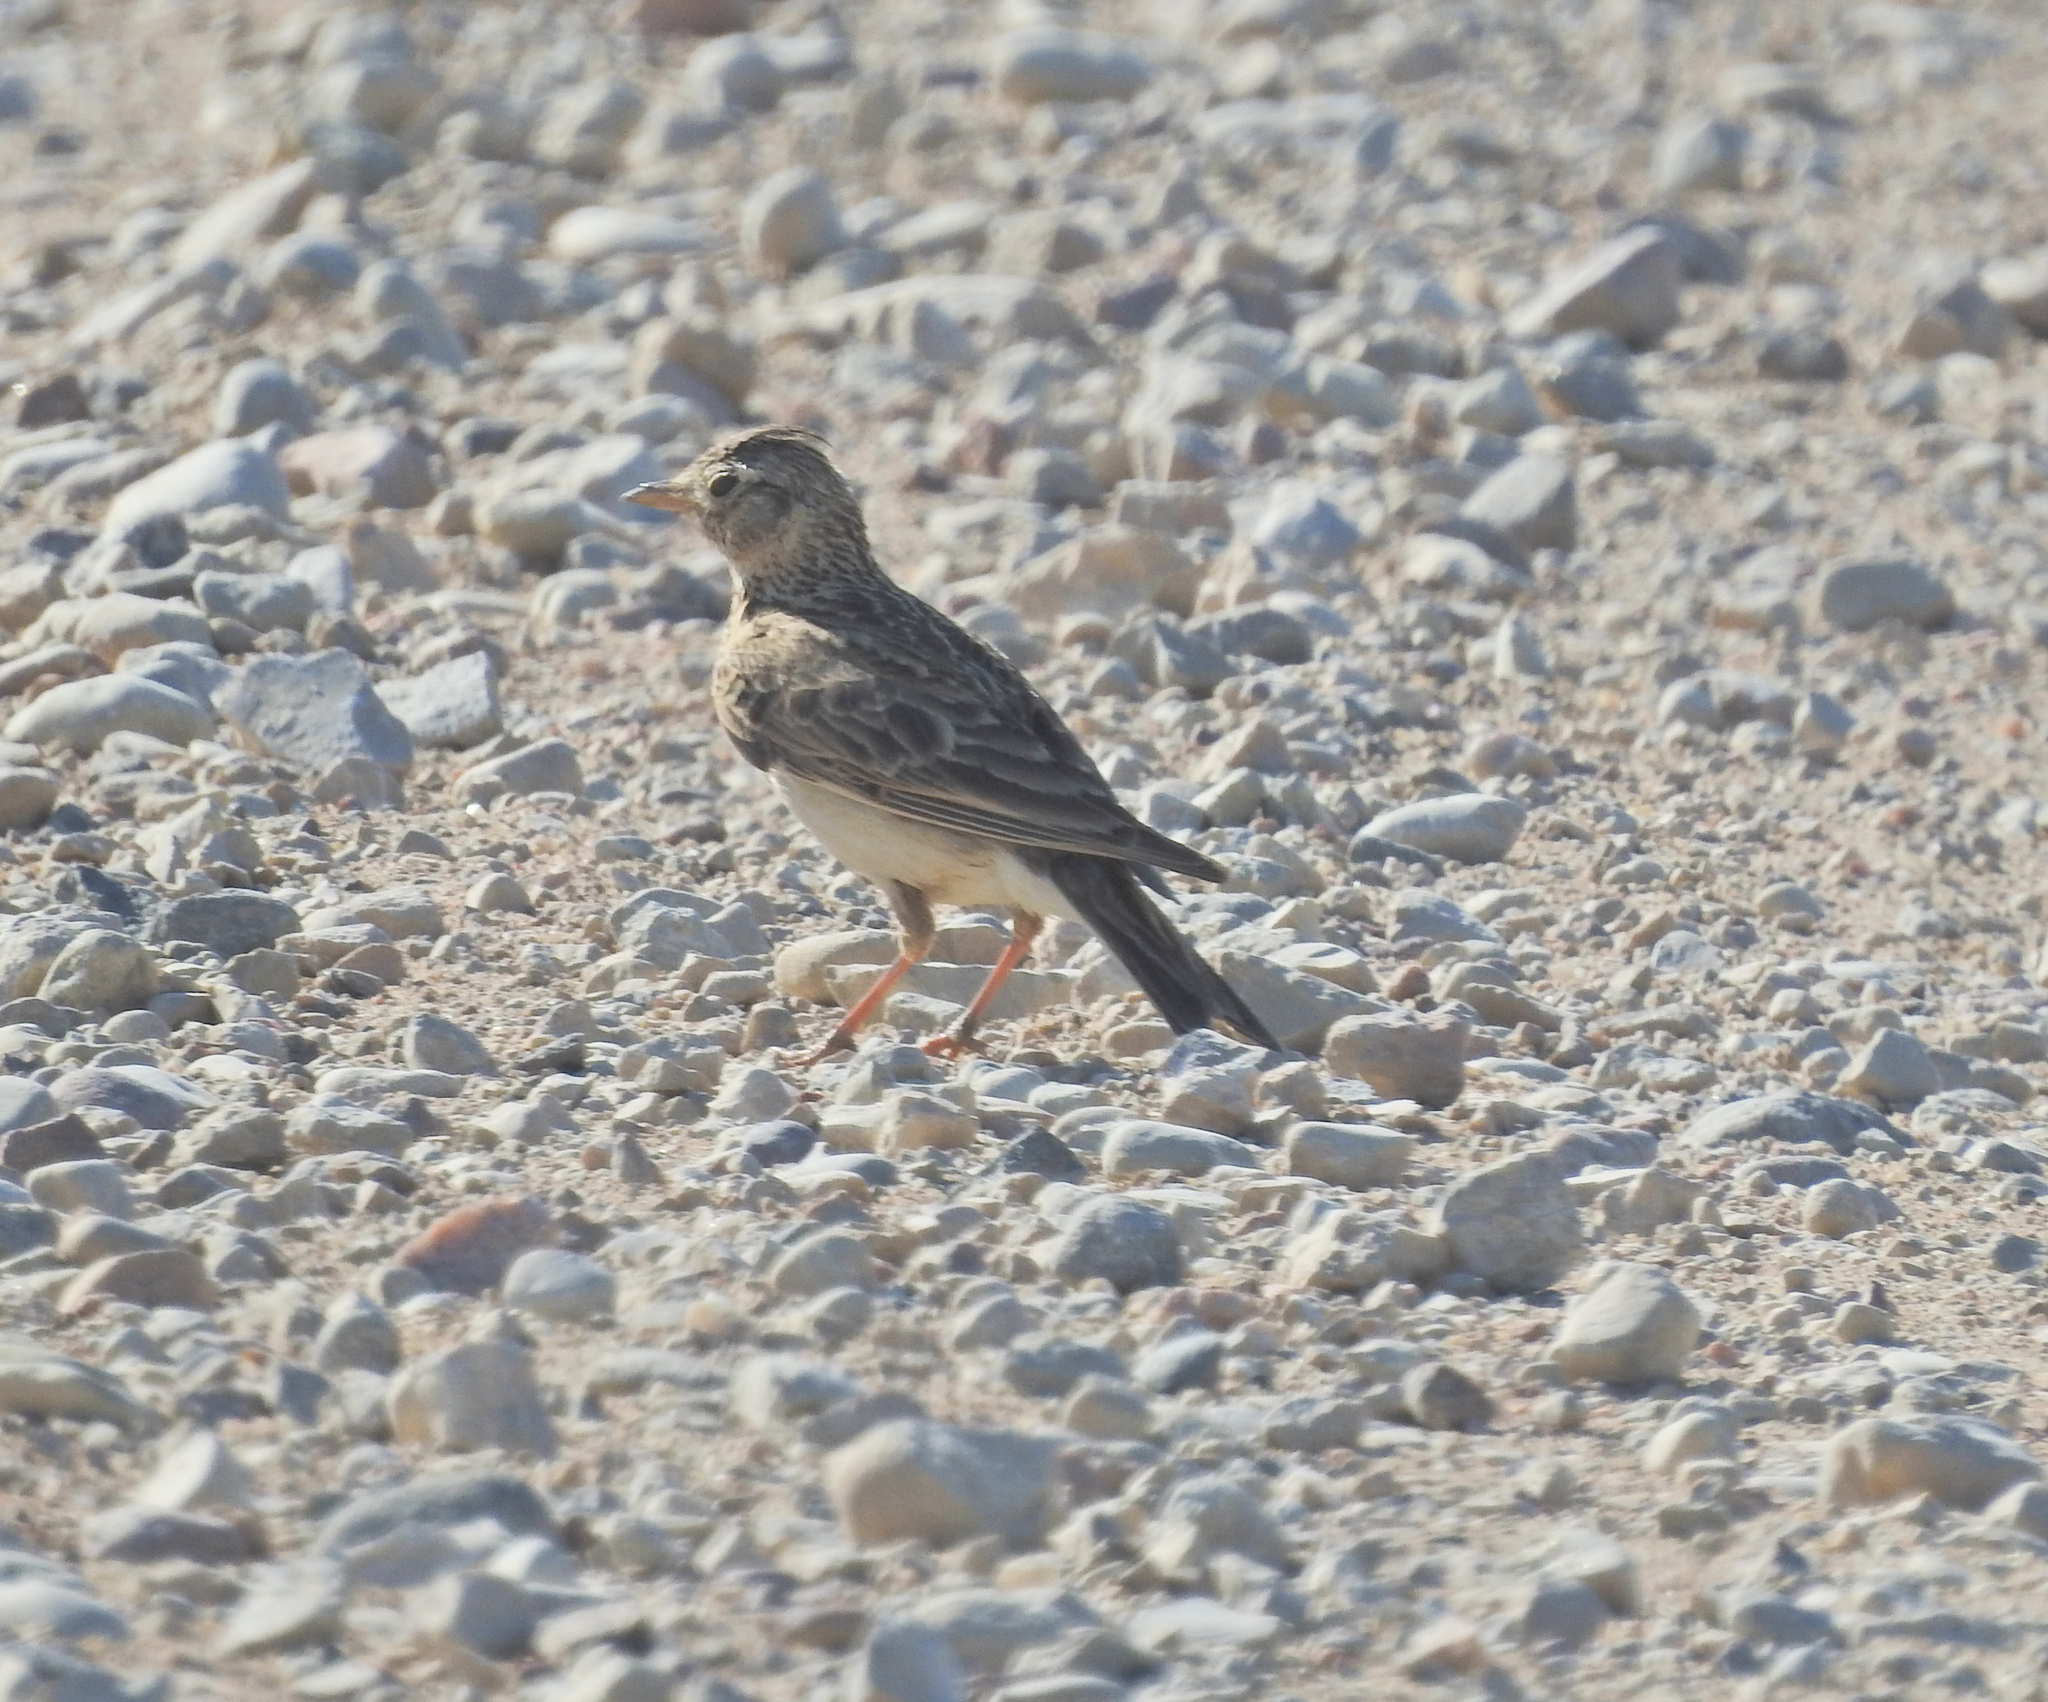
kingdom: Animalia
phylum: Chordata
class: Aves
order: Passeriformes
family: Alaudidae
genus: Alauda
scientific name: Alauda arvensis
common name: Eurasian skylark
